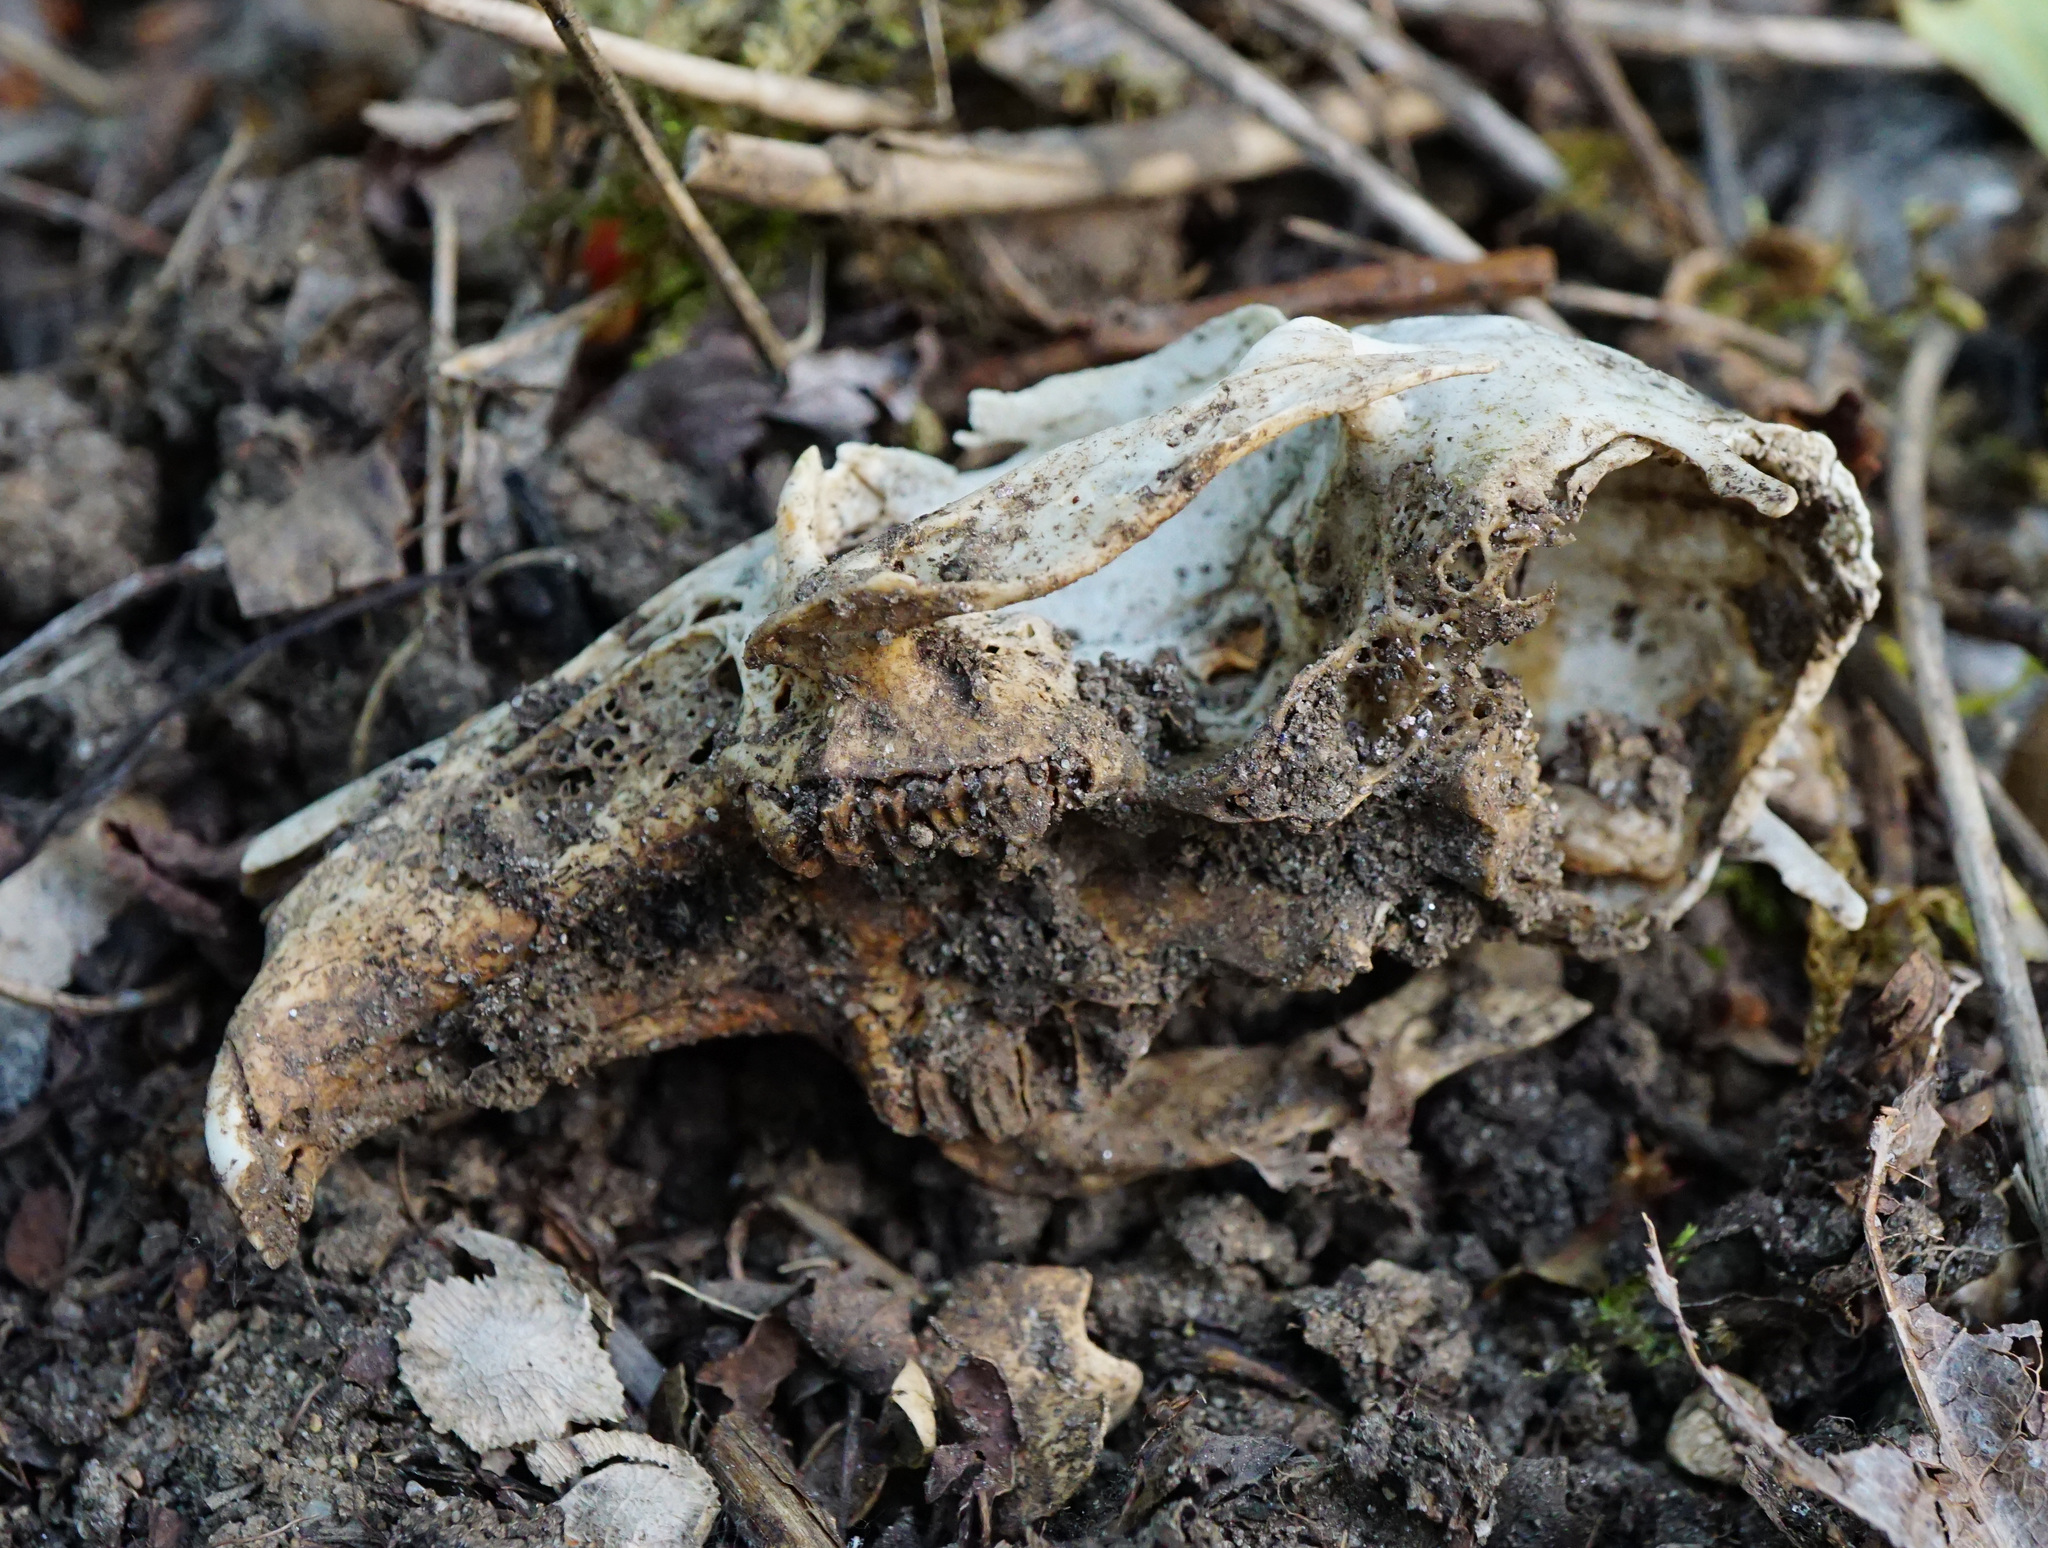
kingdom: Animalia
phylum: Chordata
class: Mammalia
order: Lagomorpha
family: Leporidae
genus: Oryctolagus
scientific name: Oryctolagus cuniculus
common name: European rabbit
